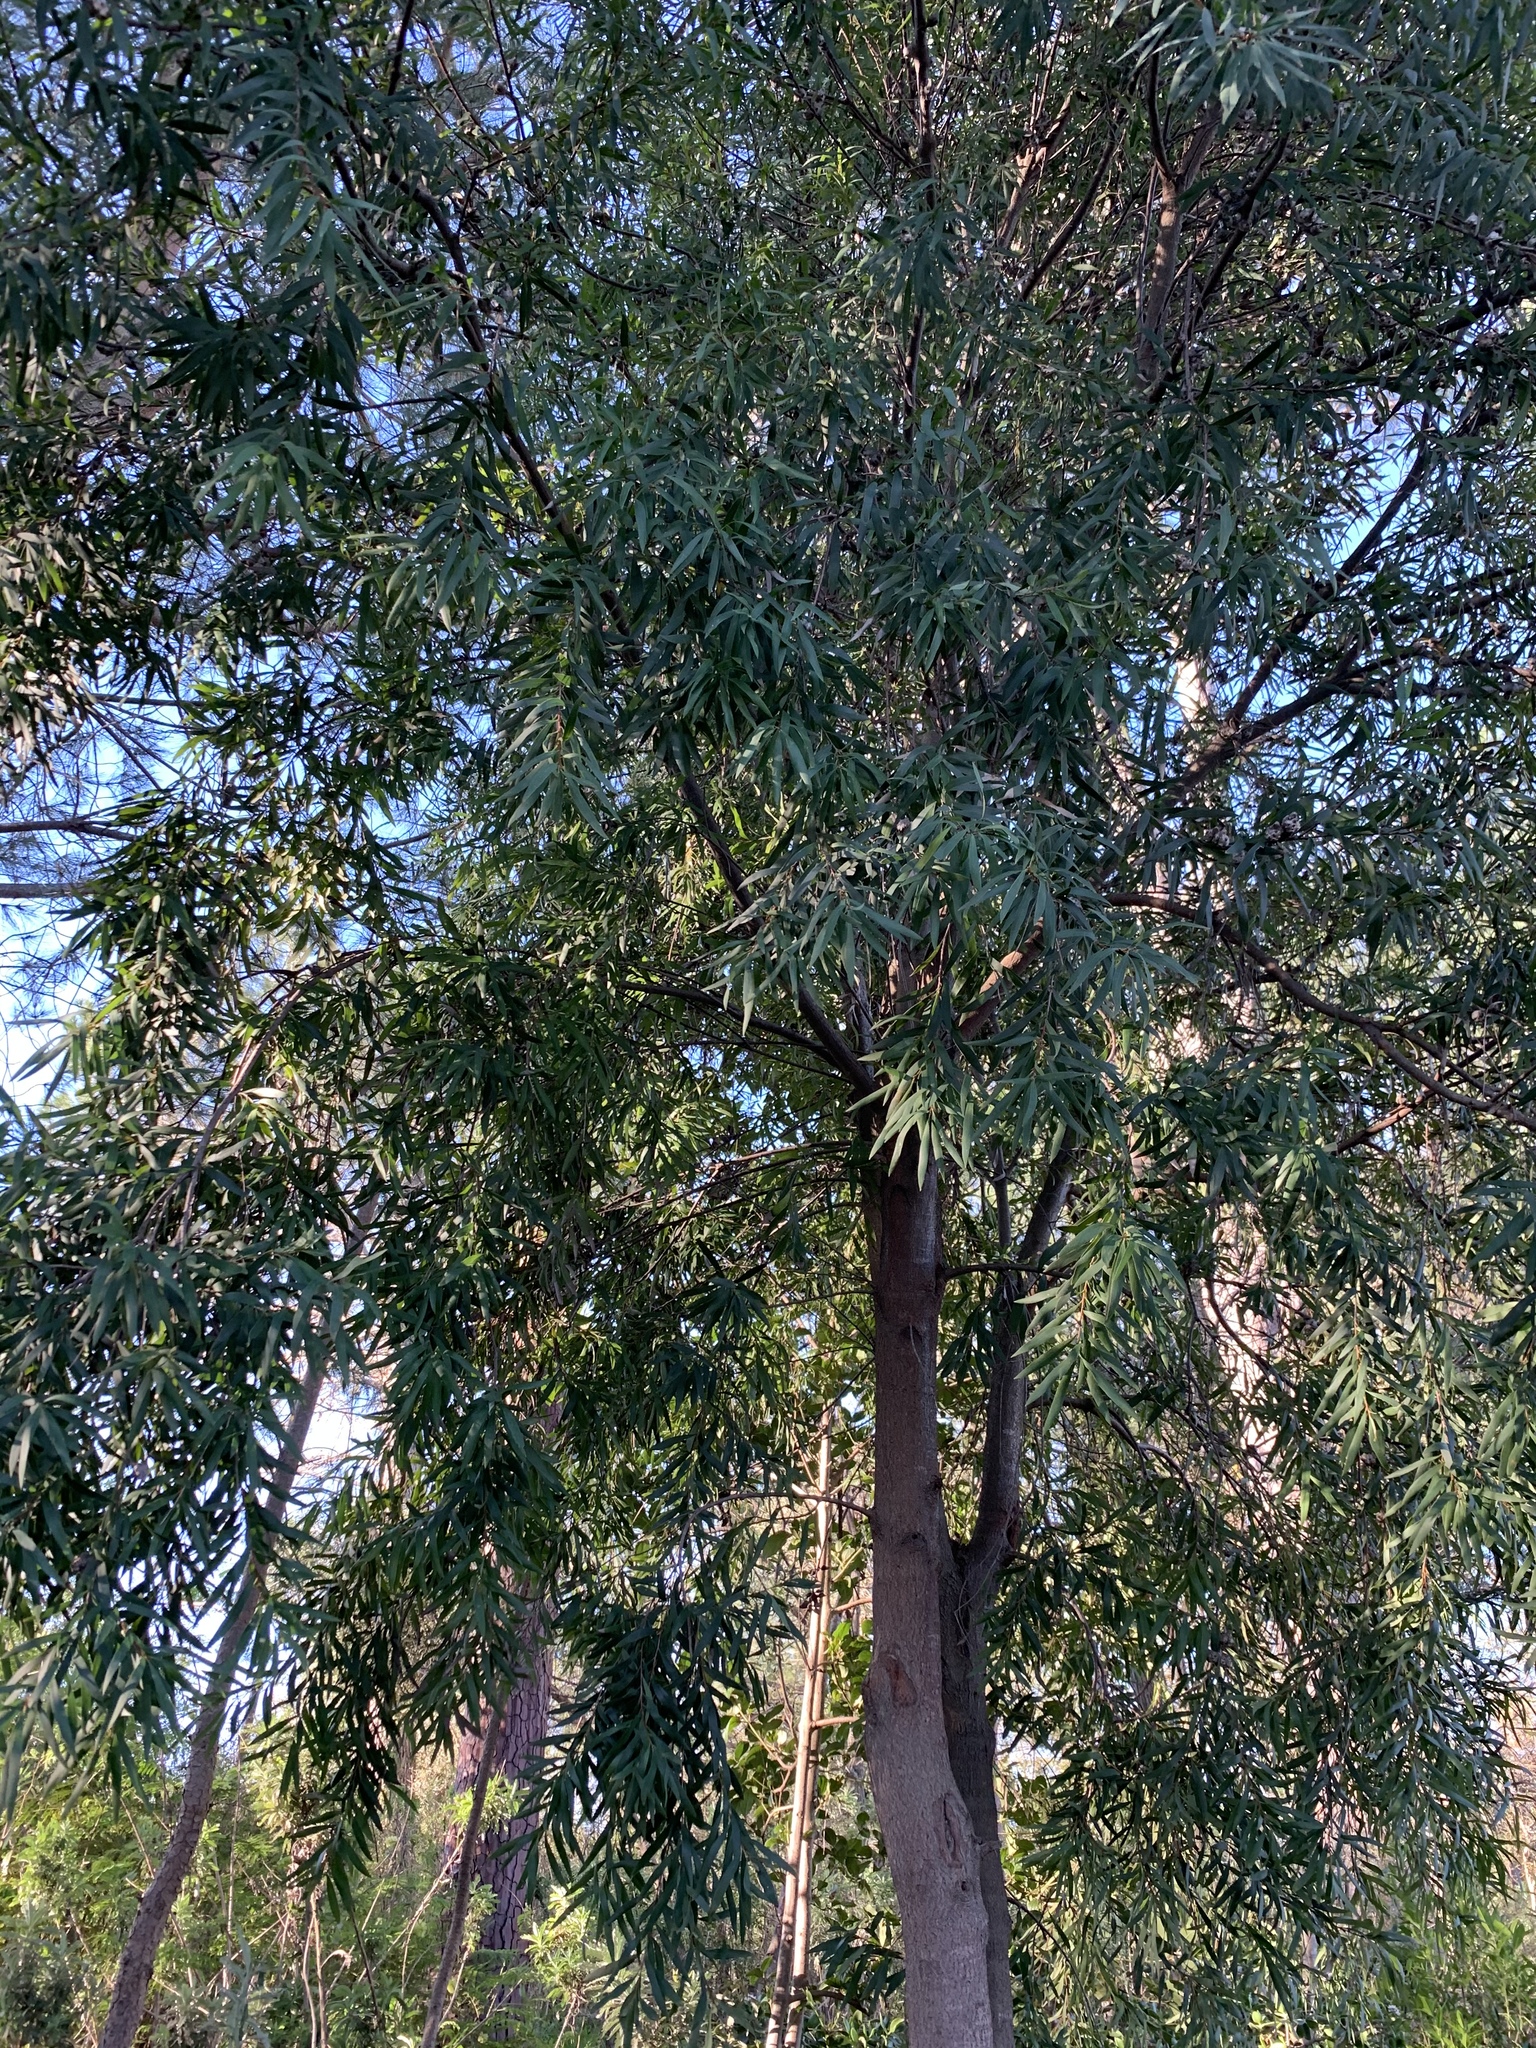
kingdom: Plantae
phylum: Tracheophyta
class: Magnoliopsida
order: Proteales
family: Proteaceae
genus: Hakea
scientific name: Hakea salicifolia
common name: Willow hakea
